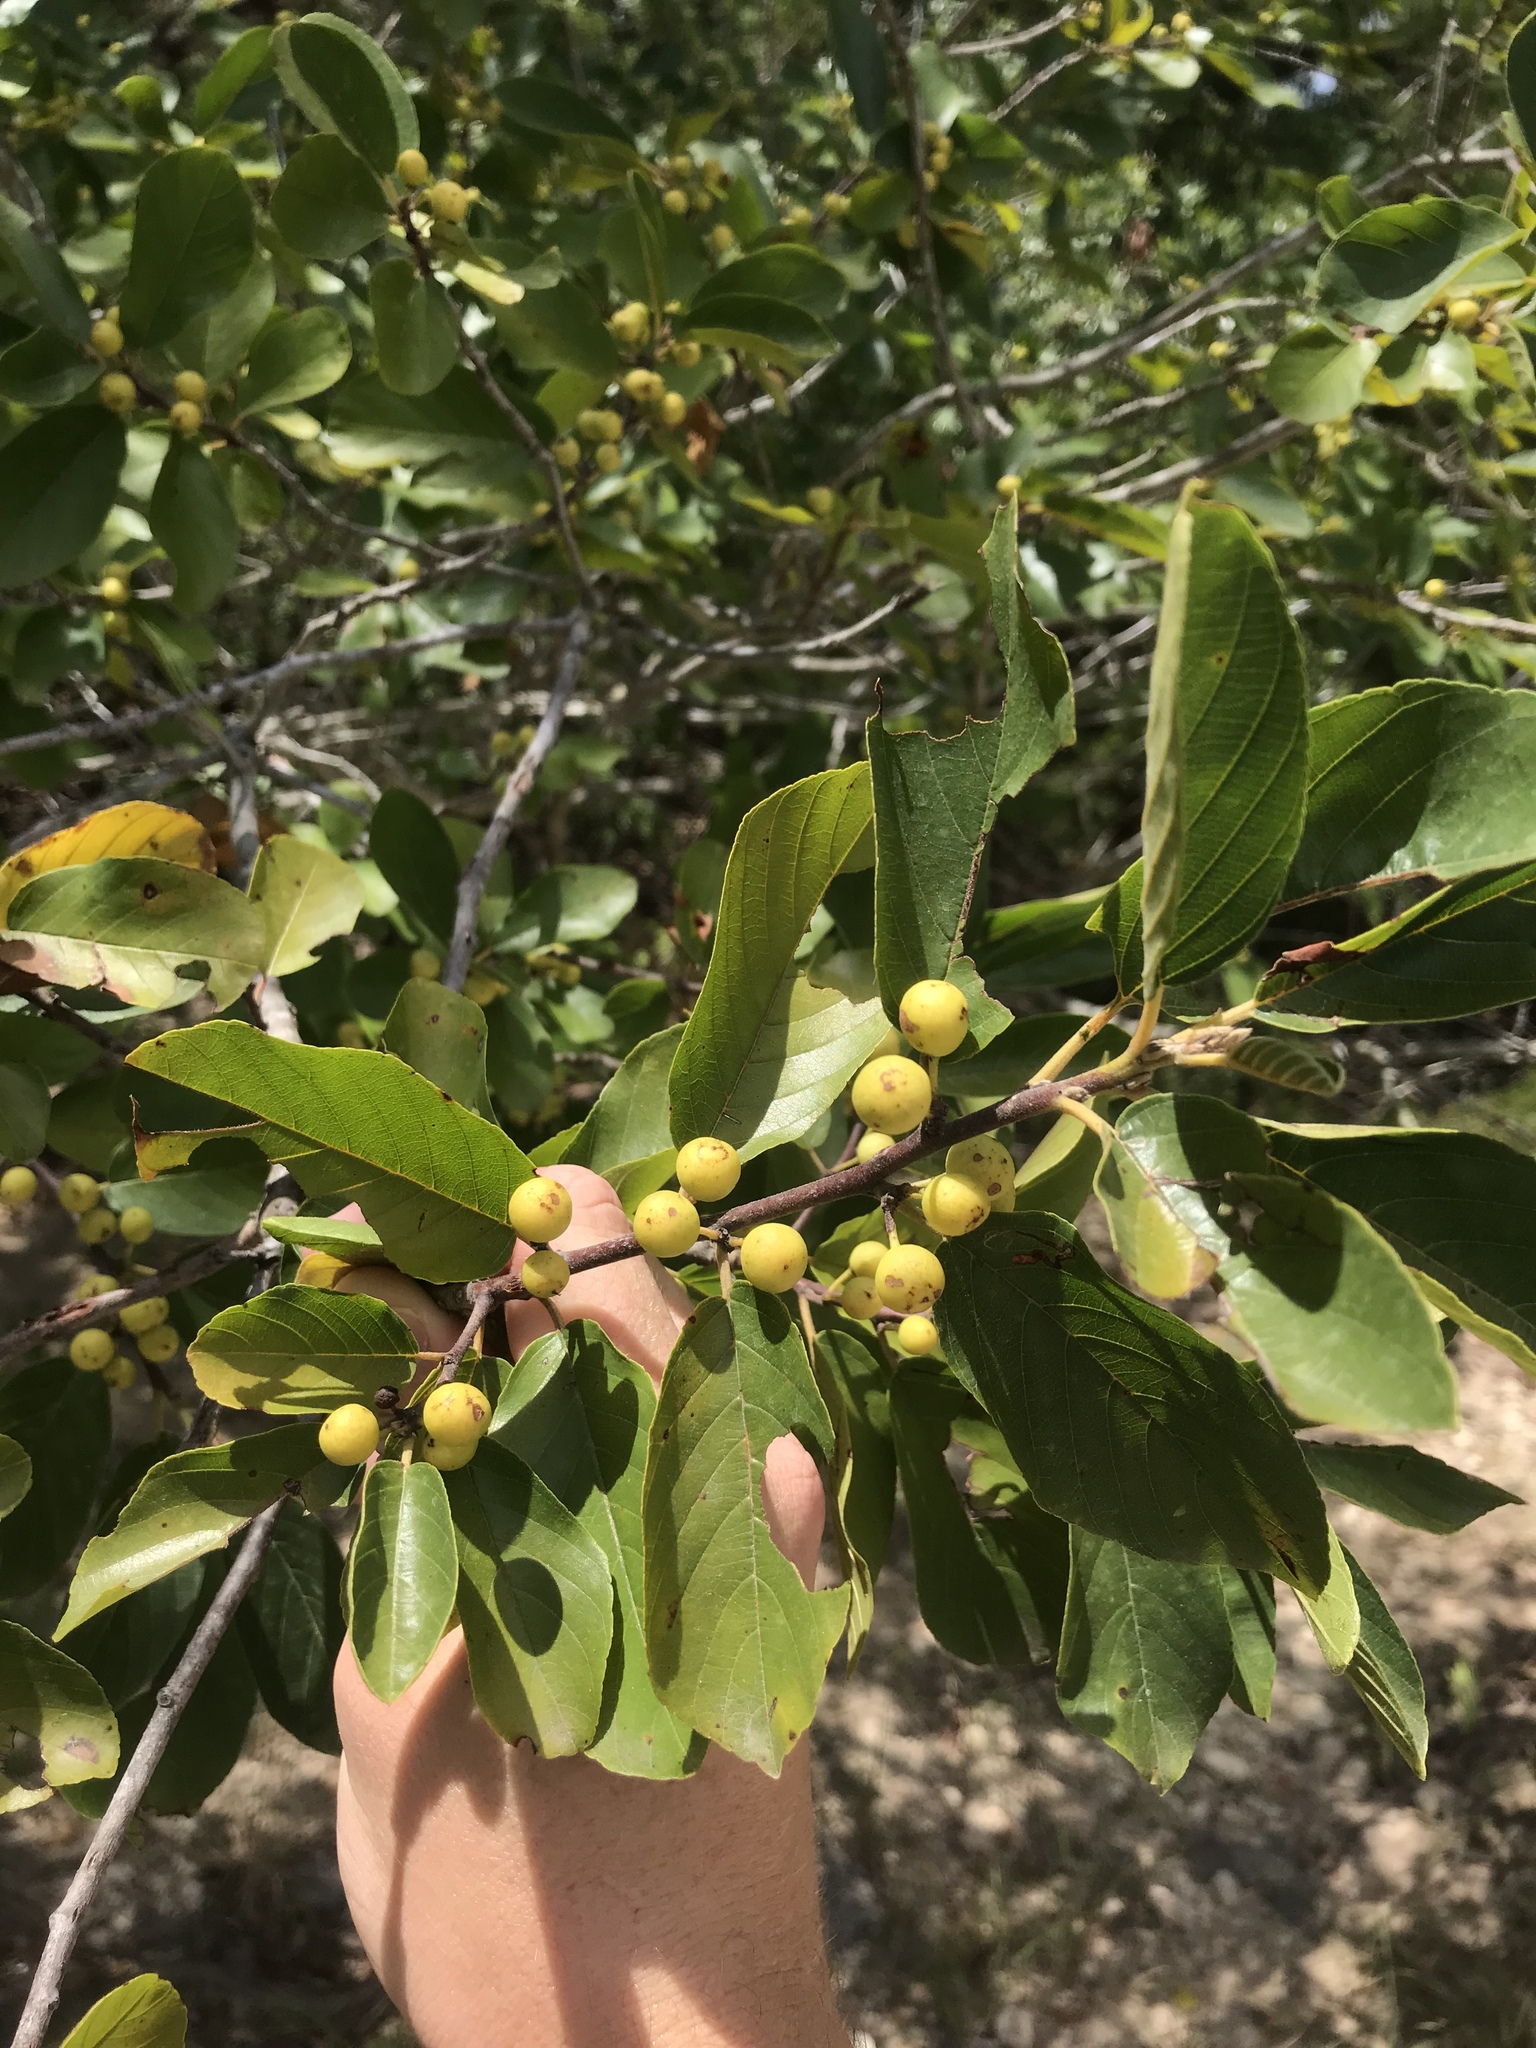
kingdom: Plantae
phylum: Tracheophyta
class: Magnoliopsida
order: Rosales
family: Rhamnaceae
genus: Frangula
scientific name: Frangula caroliniana
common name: Carolina buckthorn
